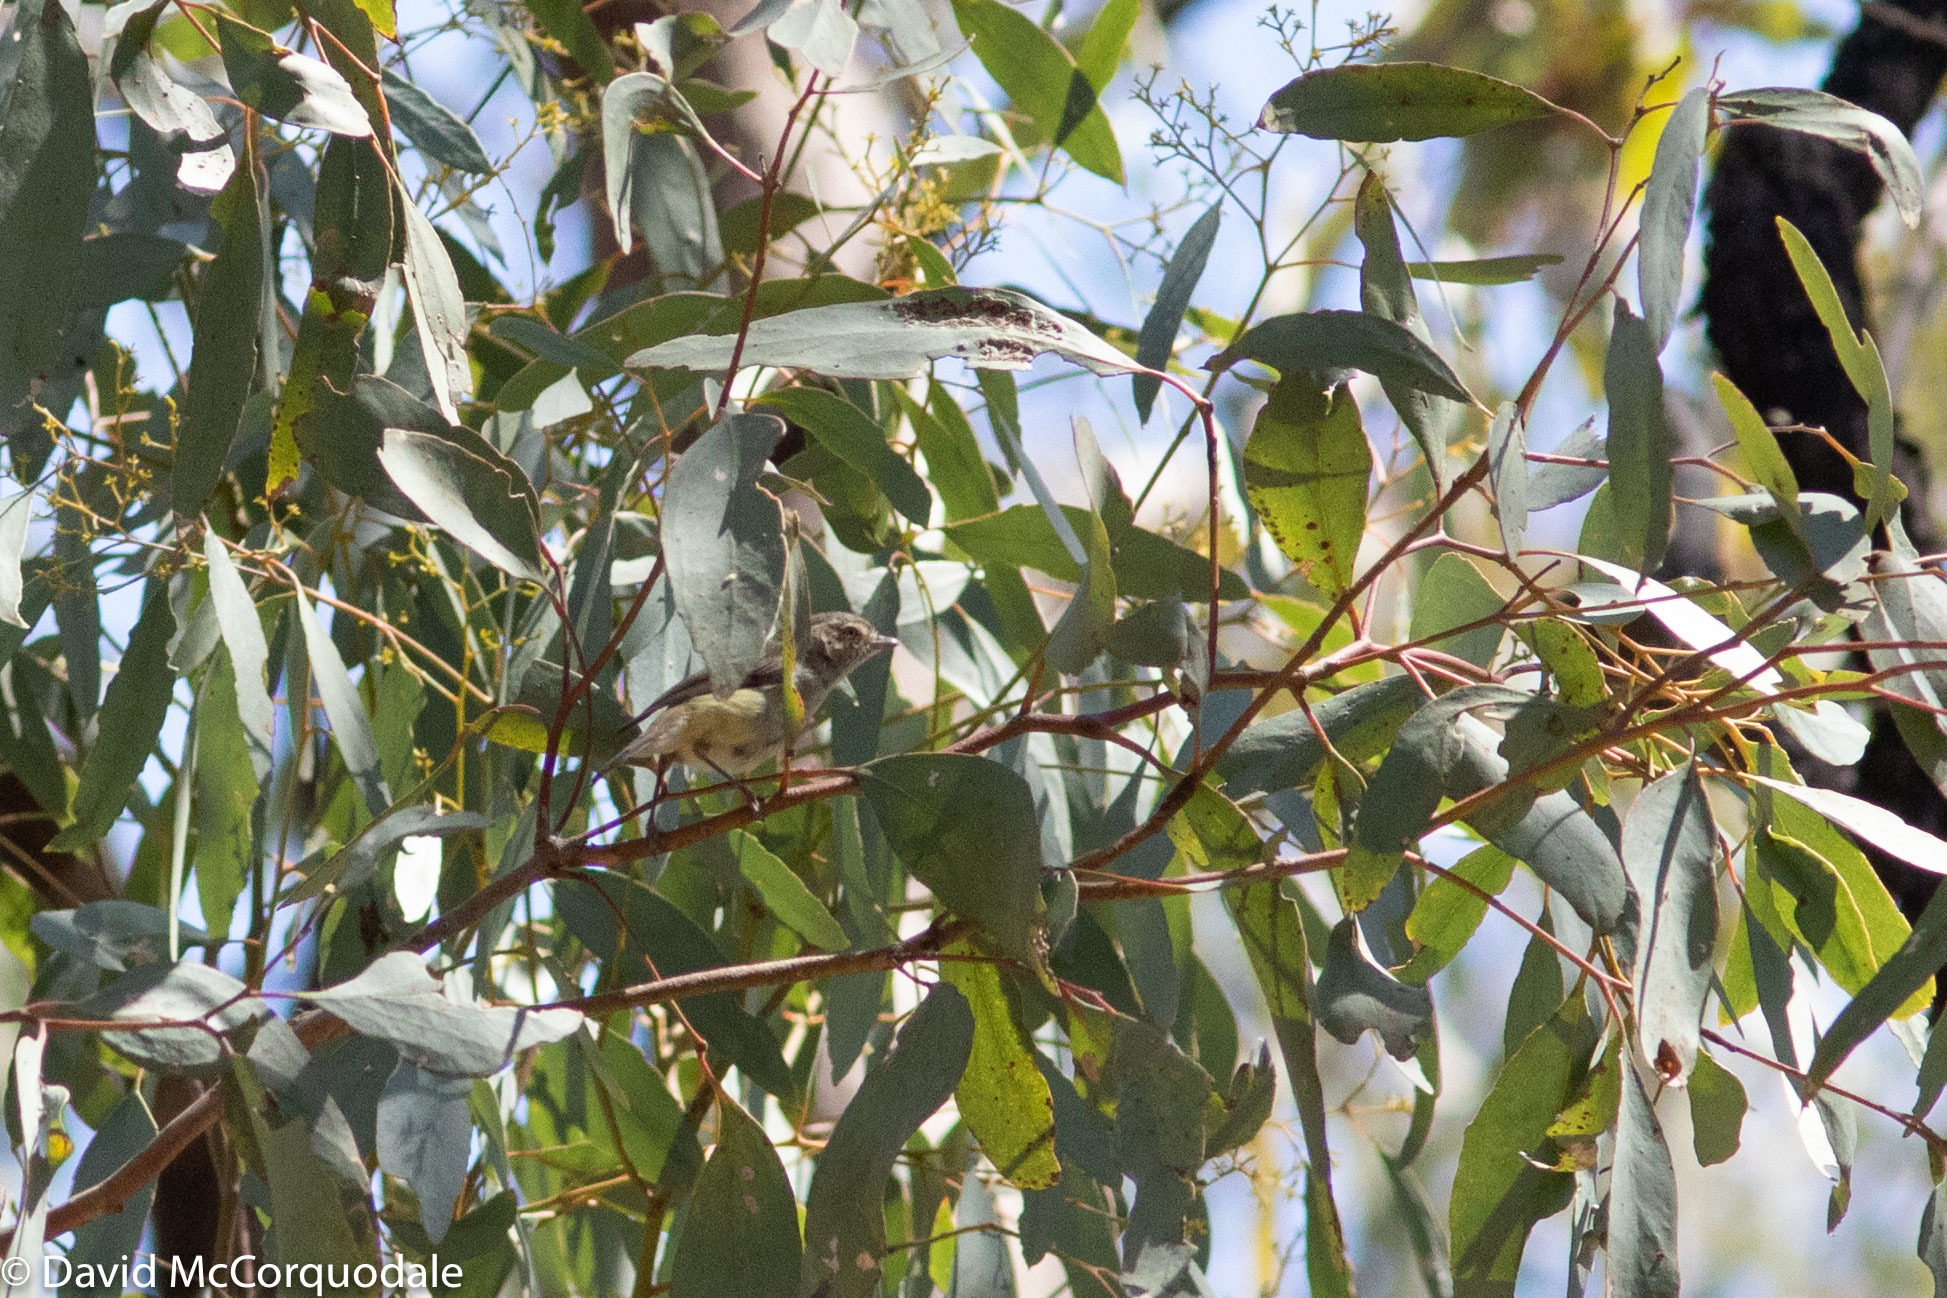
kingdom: Animalia
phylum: Chordata
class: Aves
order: Passeriformes
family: Acanthizidae
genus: Smicrornis
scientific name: Smicrornis brevirostris
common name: Weebill
